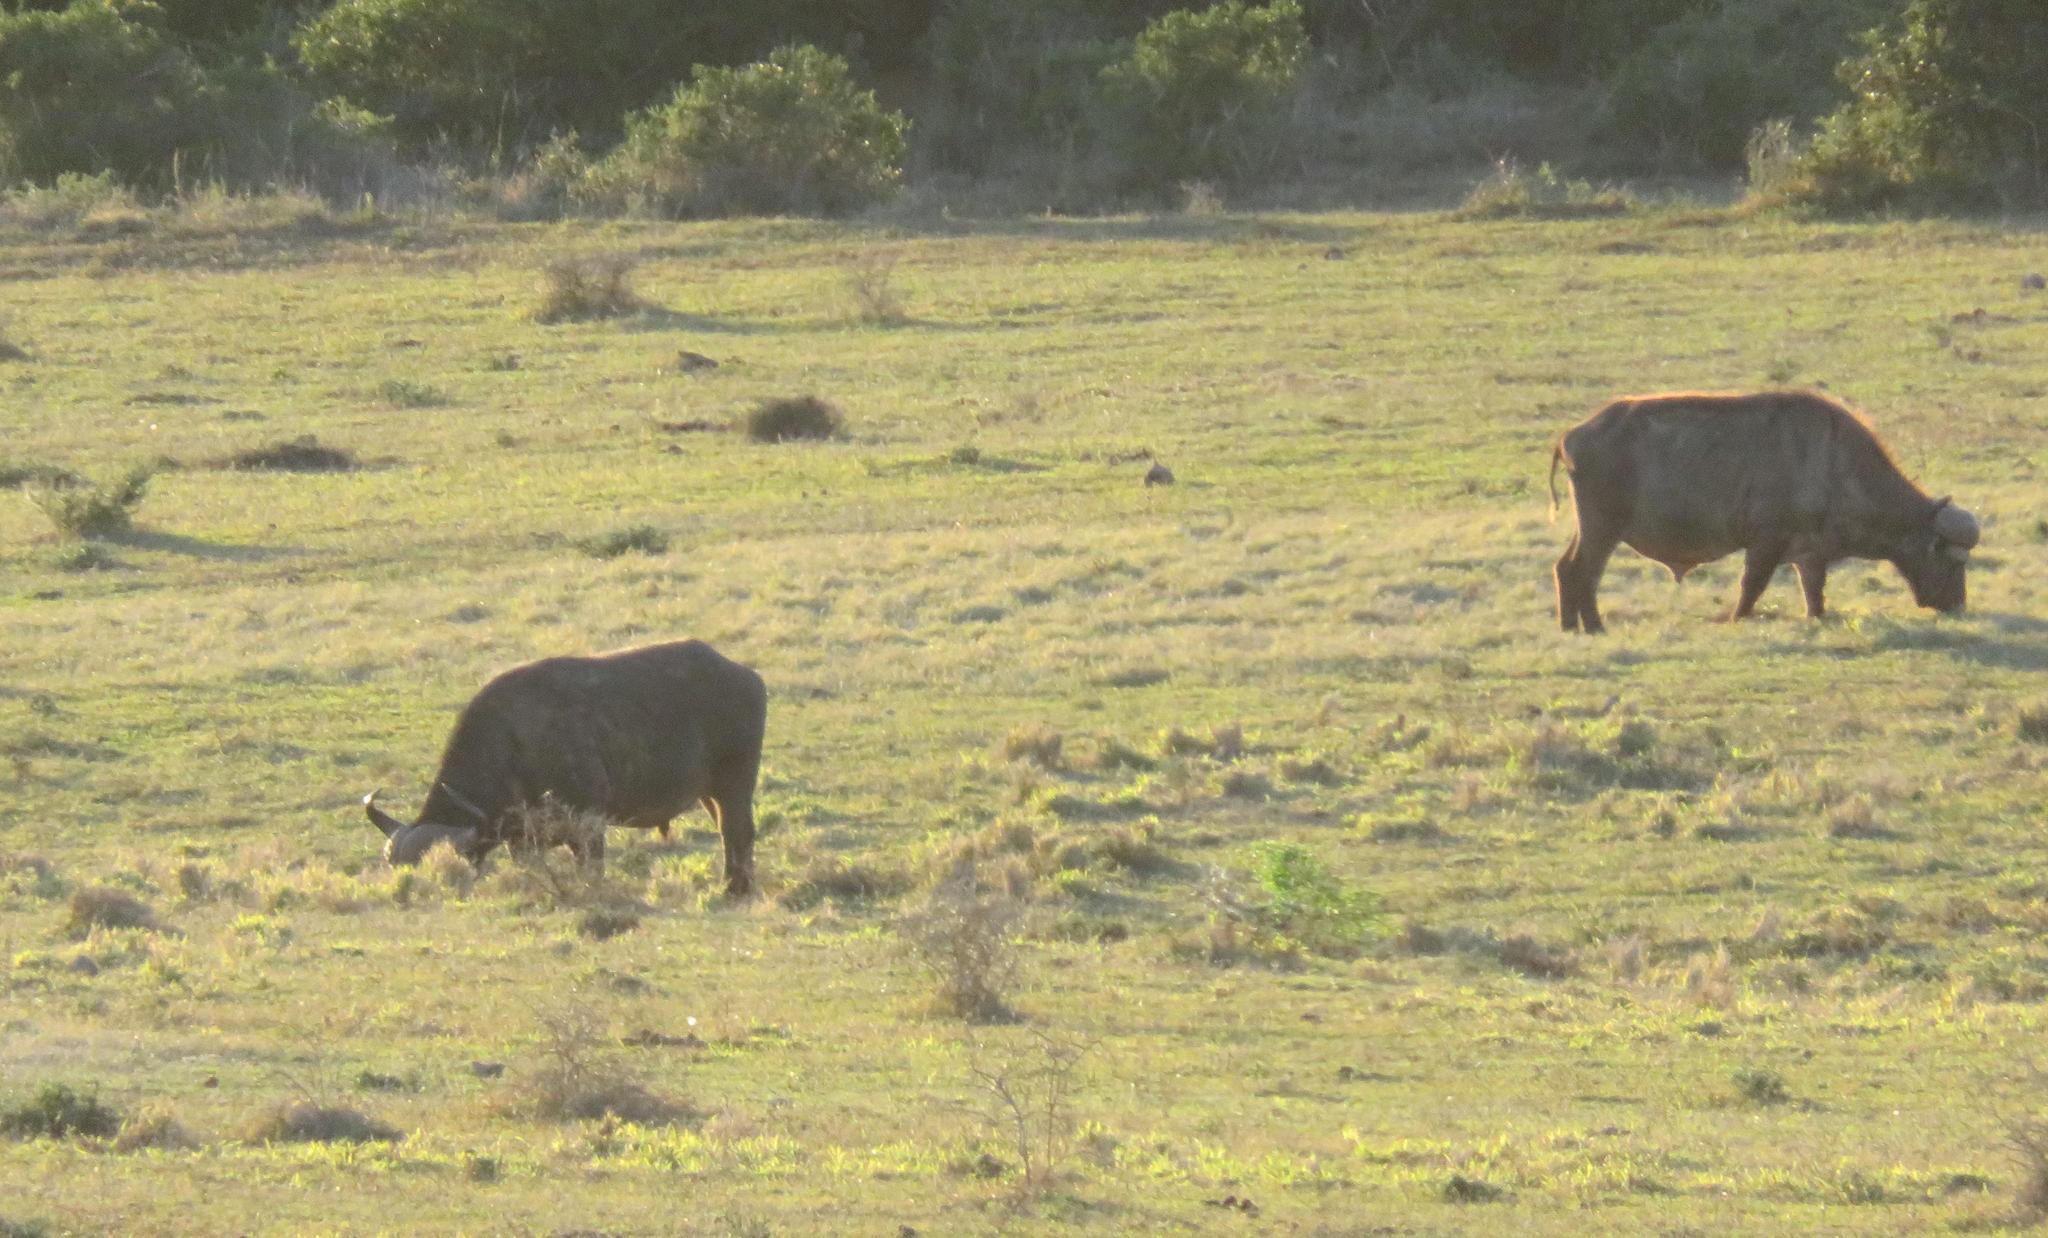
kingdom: Animalia
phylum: Chordata
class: Mammalia
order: Artiodactyla
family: Bovidae
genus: Syncerus
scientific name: Syncerus caffer
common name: African buffalo
